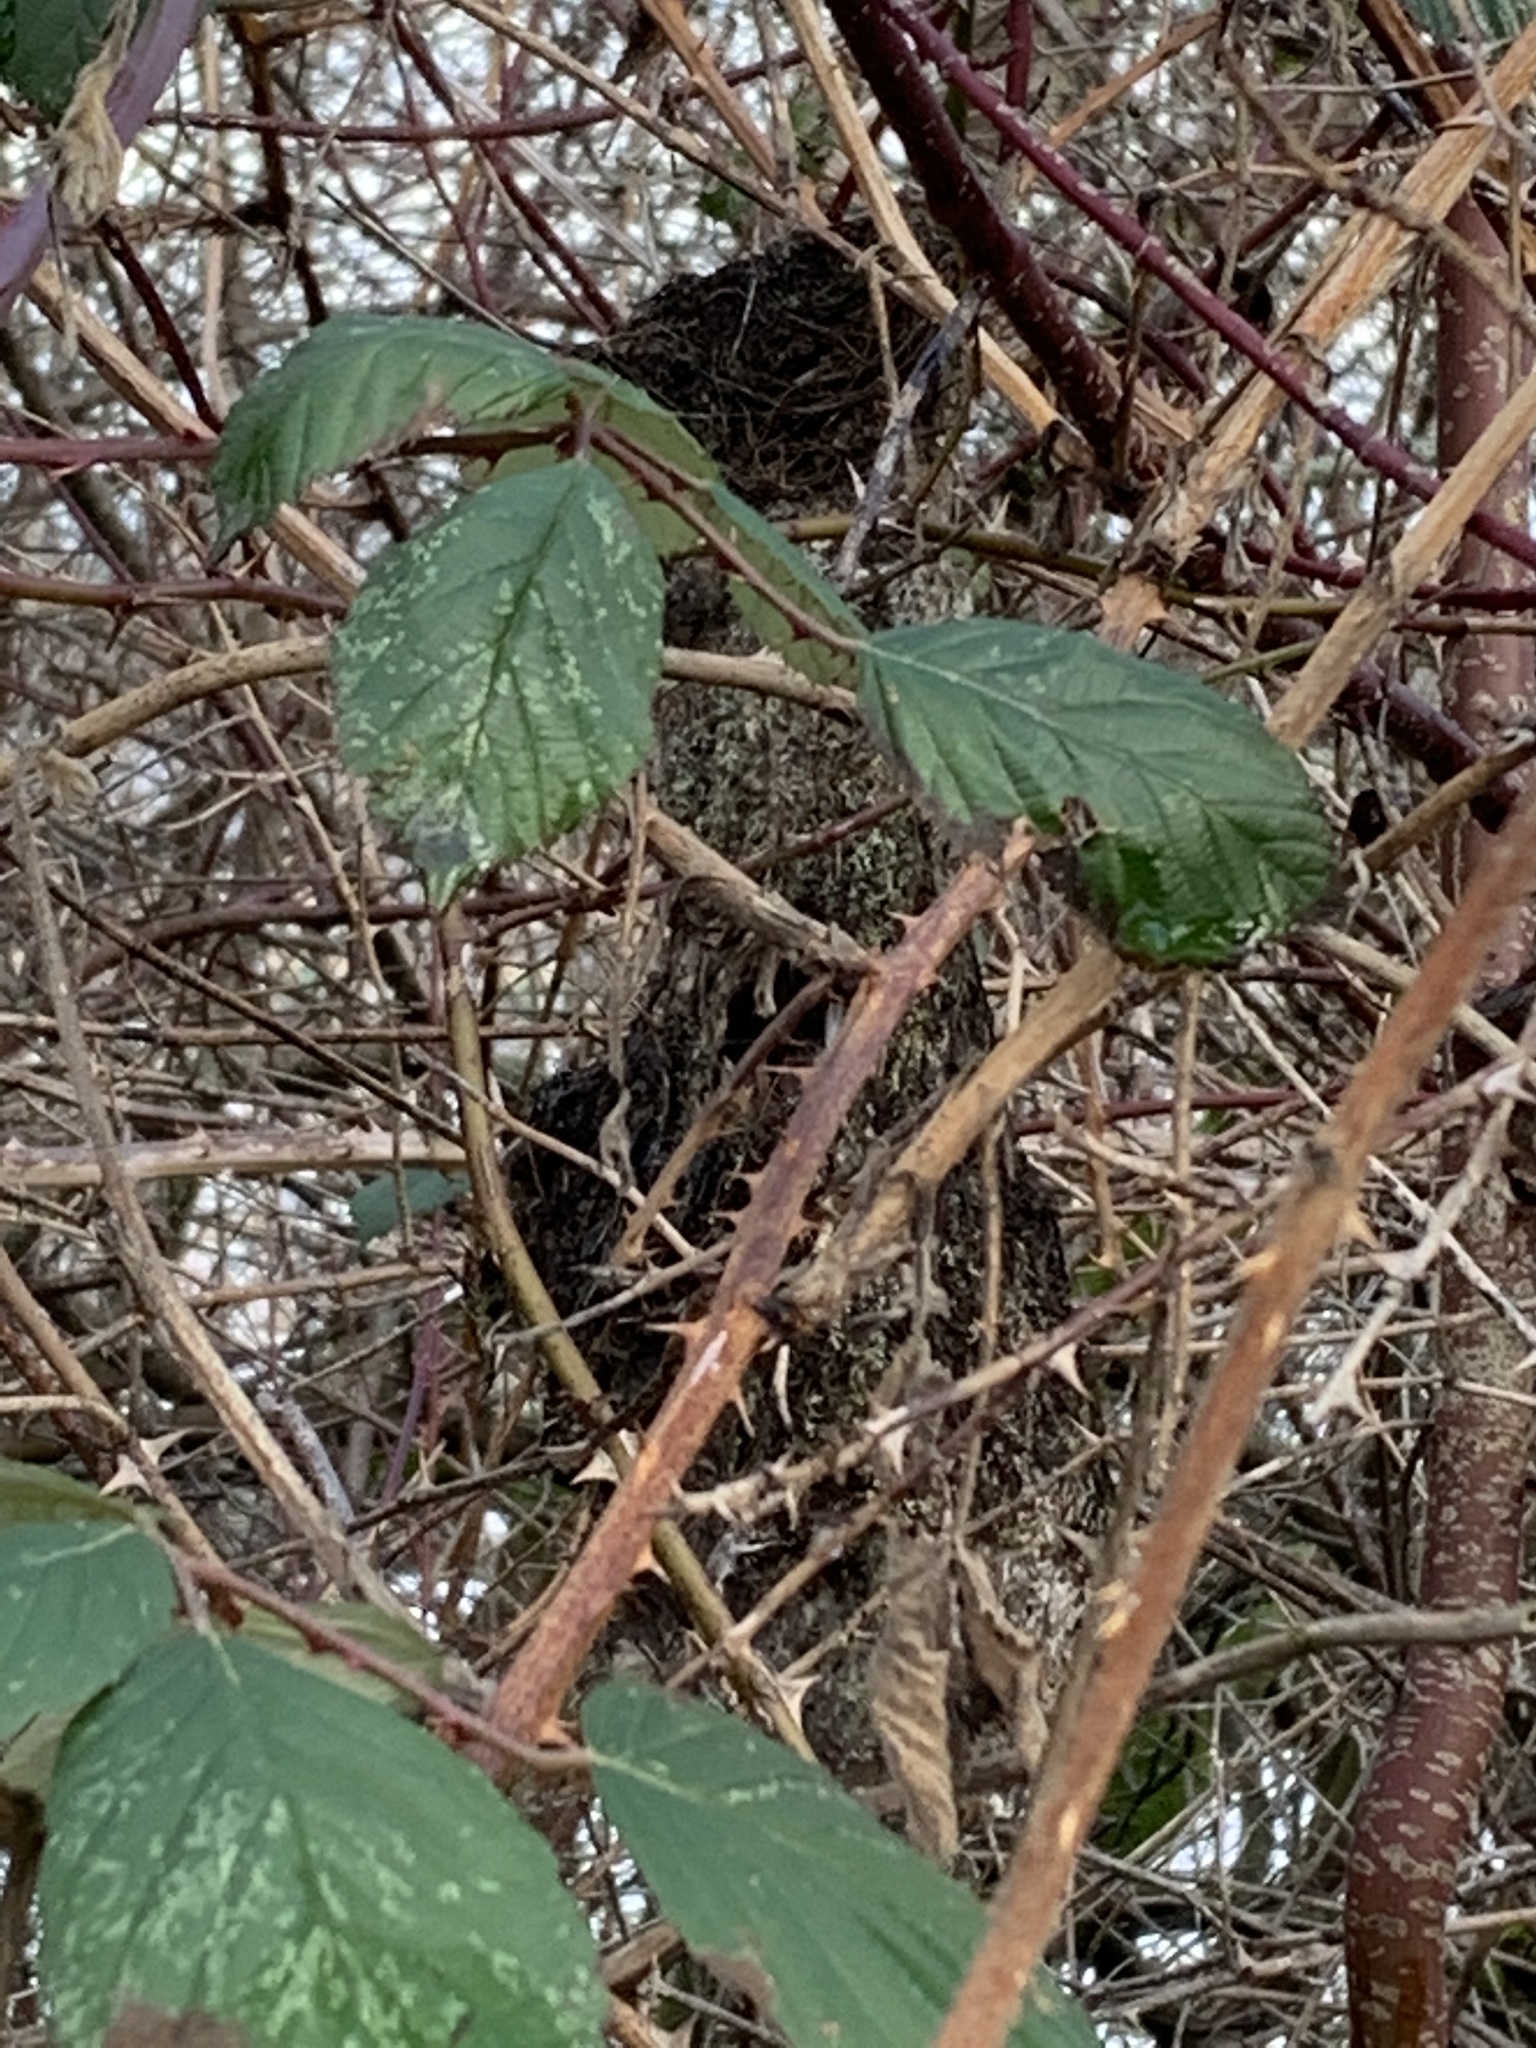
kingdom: Animalia
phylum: Chordata
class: Aves
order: Passeriformes
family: Aegithalidae
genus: Psaltriparus
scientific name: Psaltriparus minimus
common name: American bushtit
